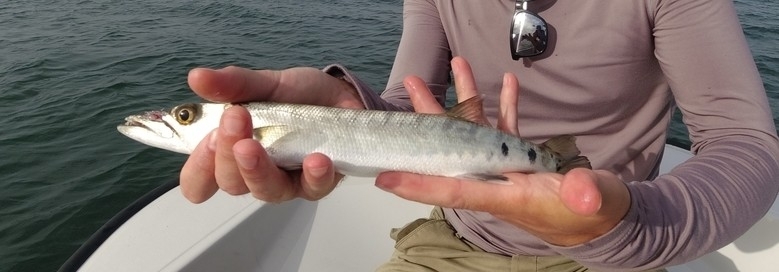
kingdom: Animalia
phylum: Chordata
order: Perciformes
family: Sphyraenidae
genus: Sphyraena
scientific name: Sphyraena barracuda
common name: Great barracuda
